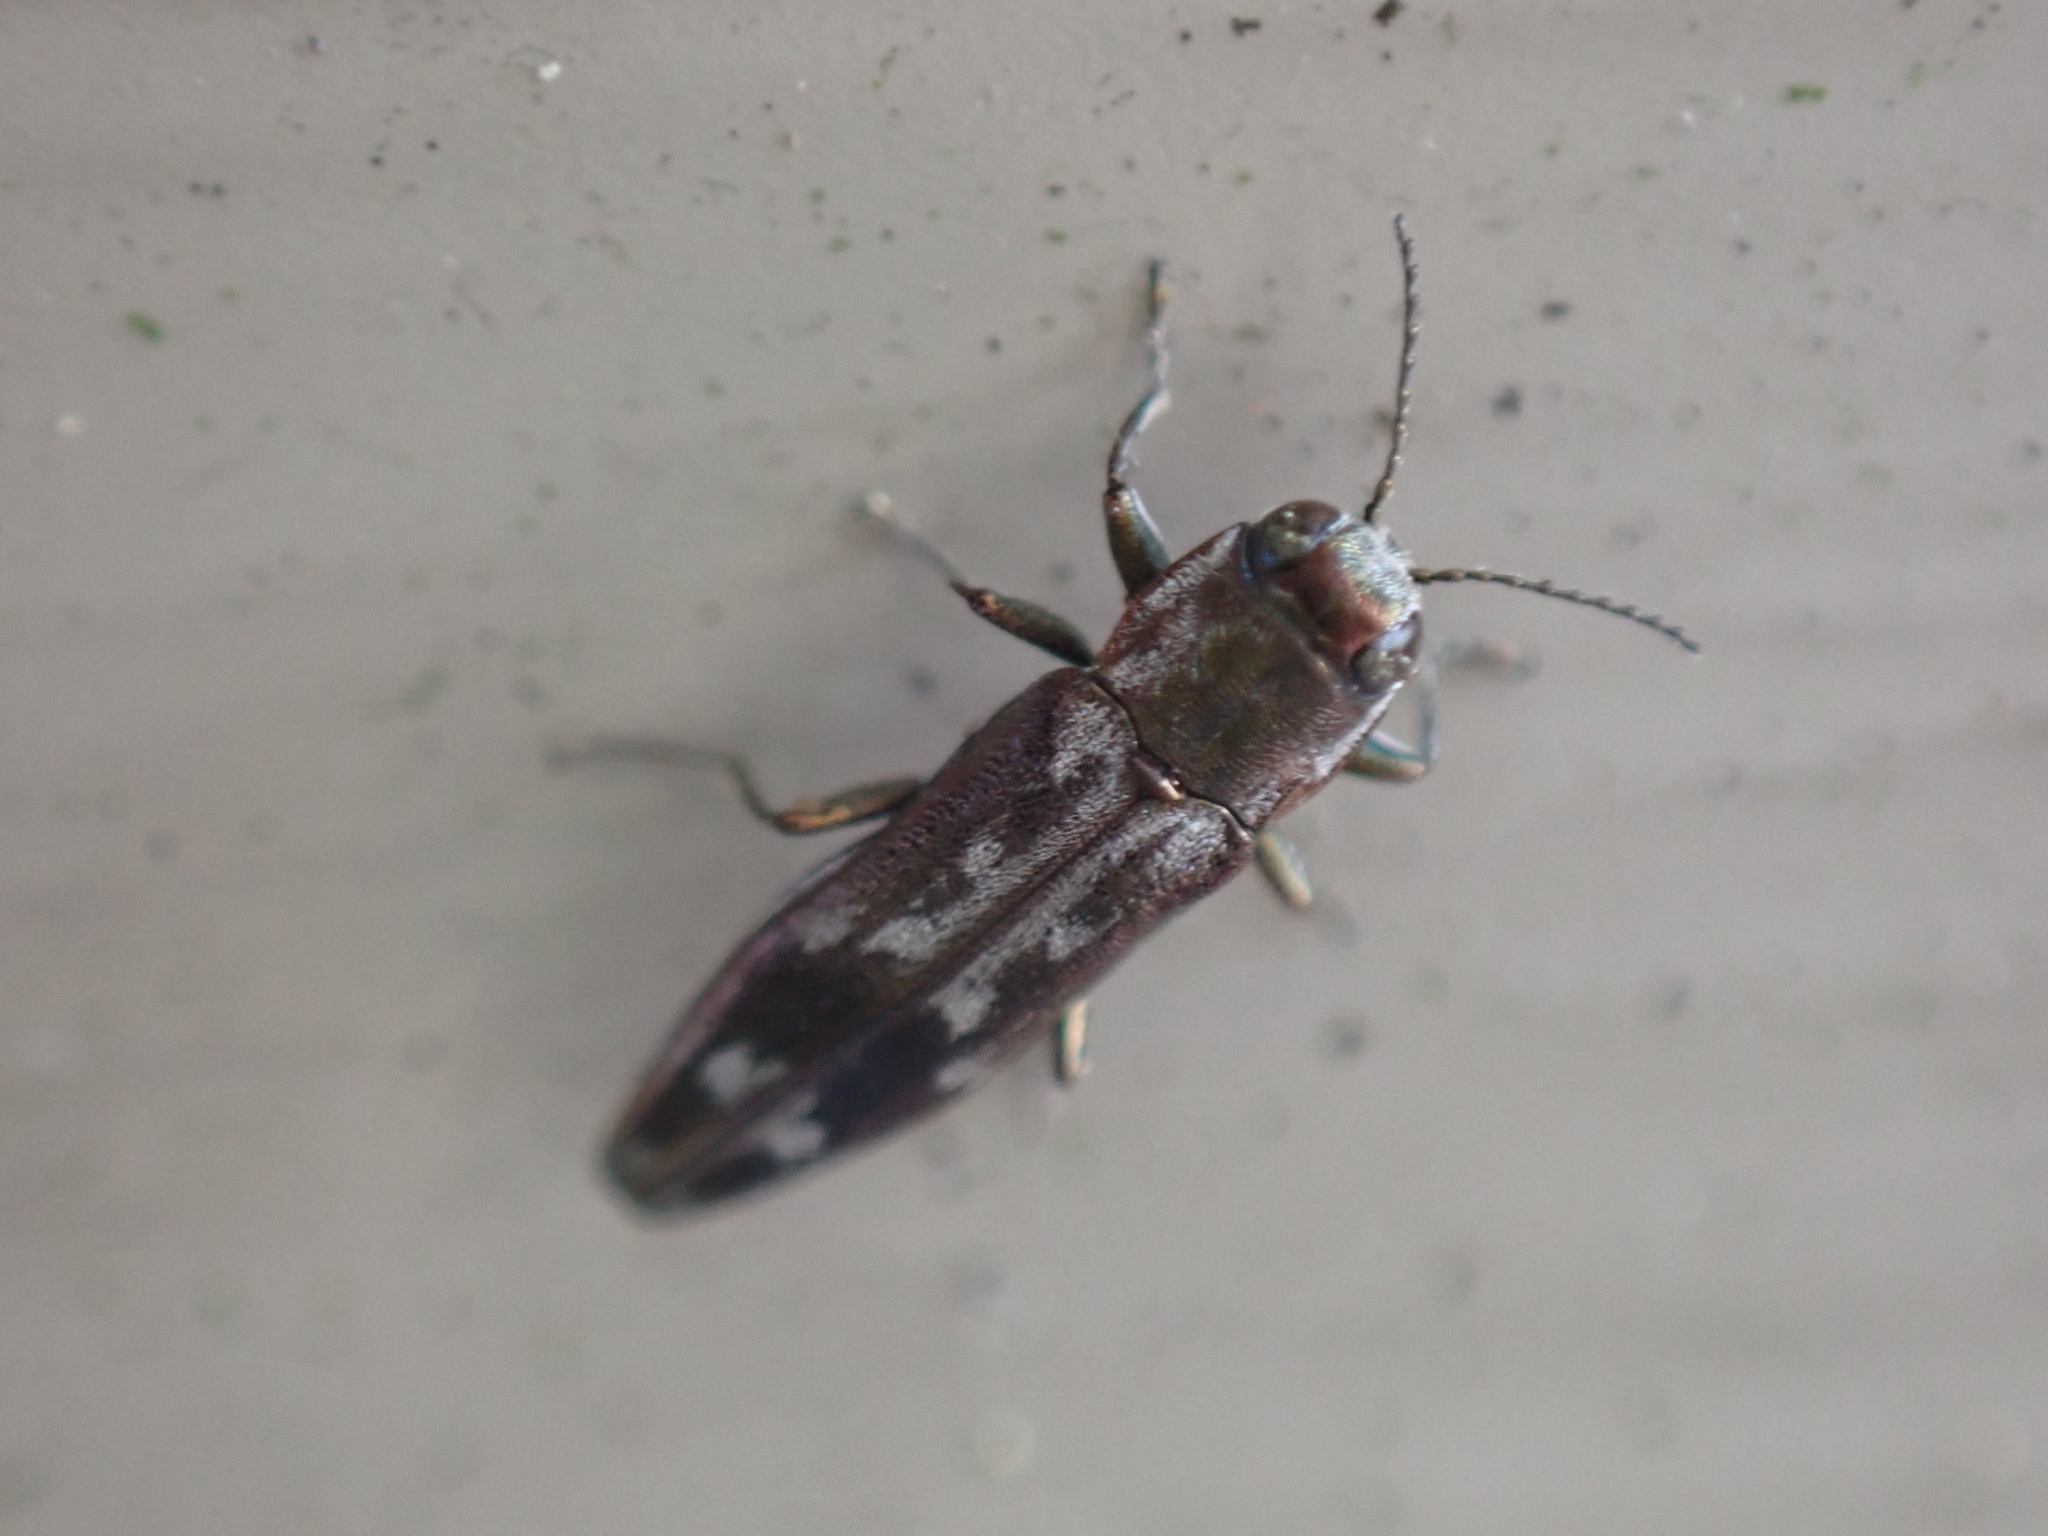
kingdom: Animalia
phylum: Arthropoda
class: Insecta
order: Coleoptera
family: Buprestidae
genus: Agrilus
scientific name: Agrilus lecontei
